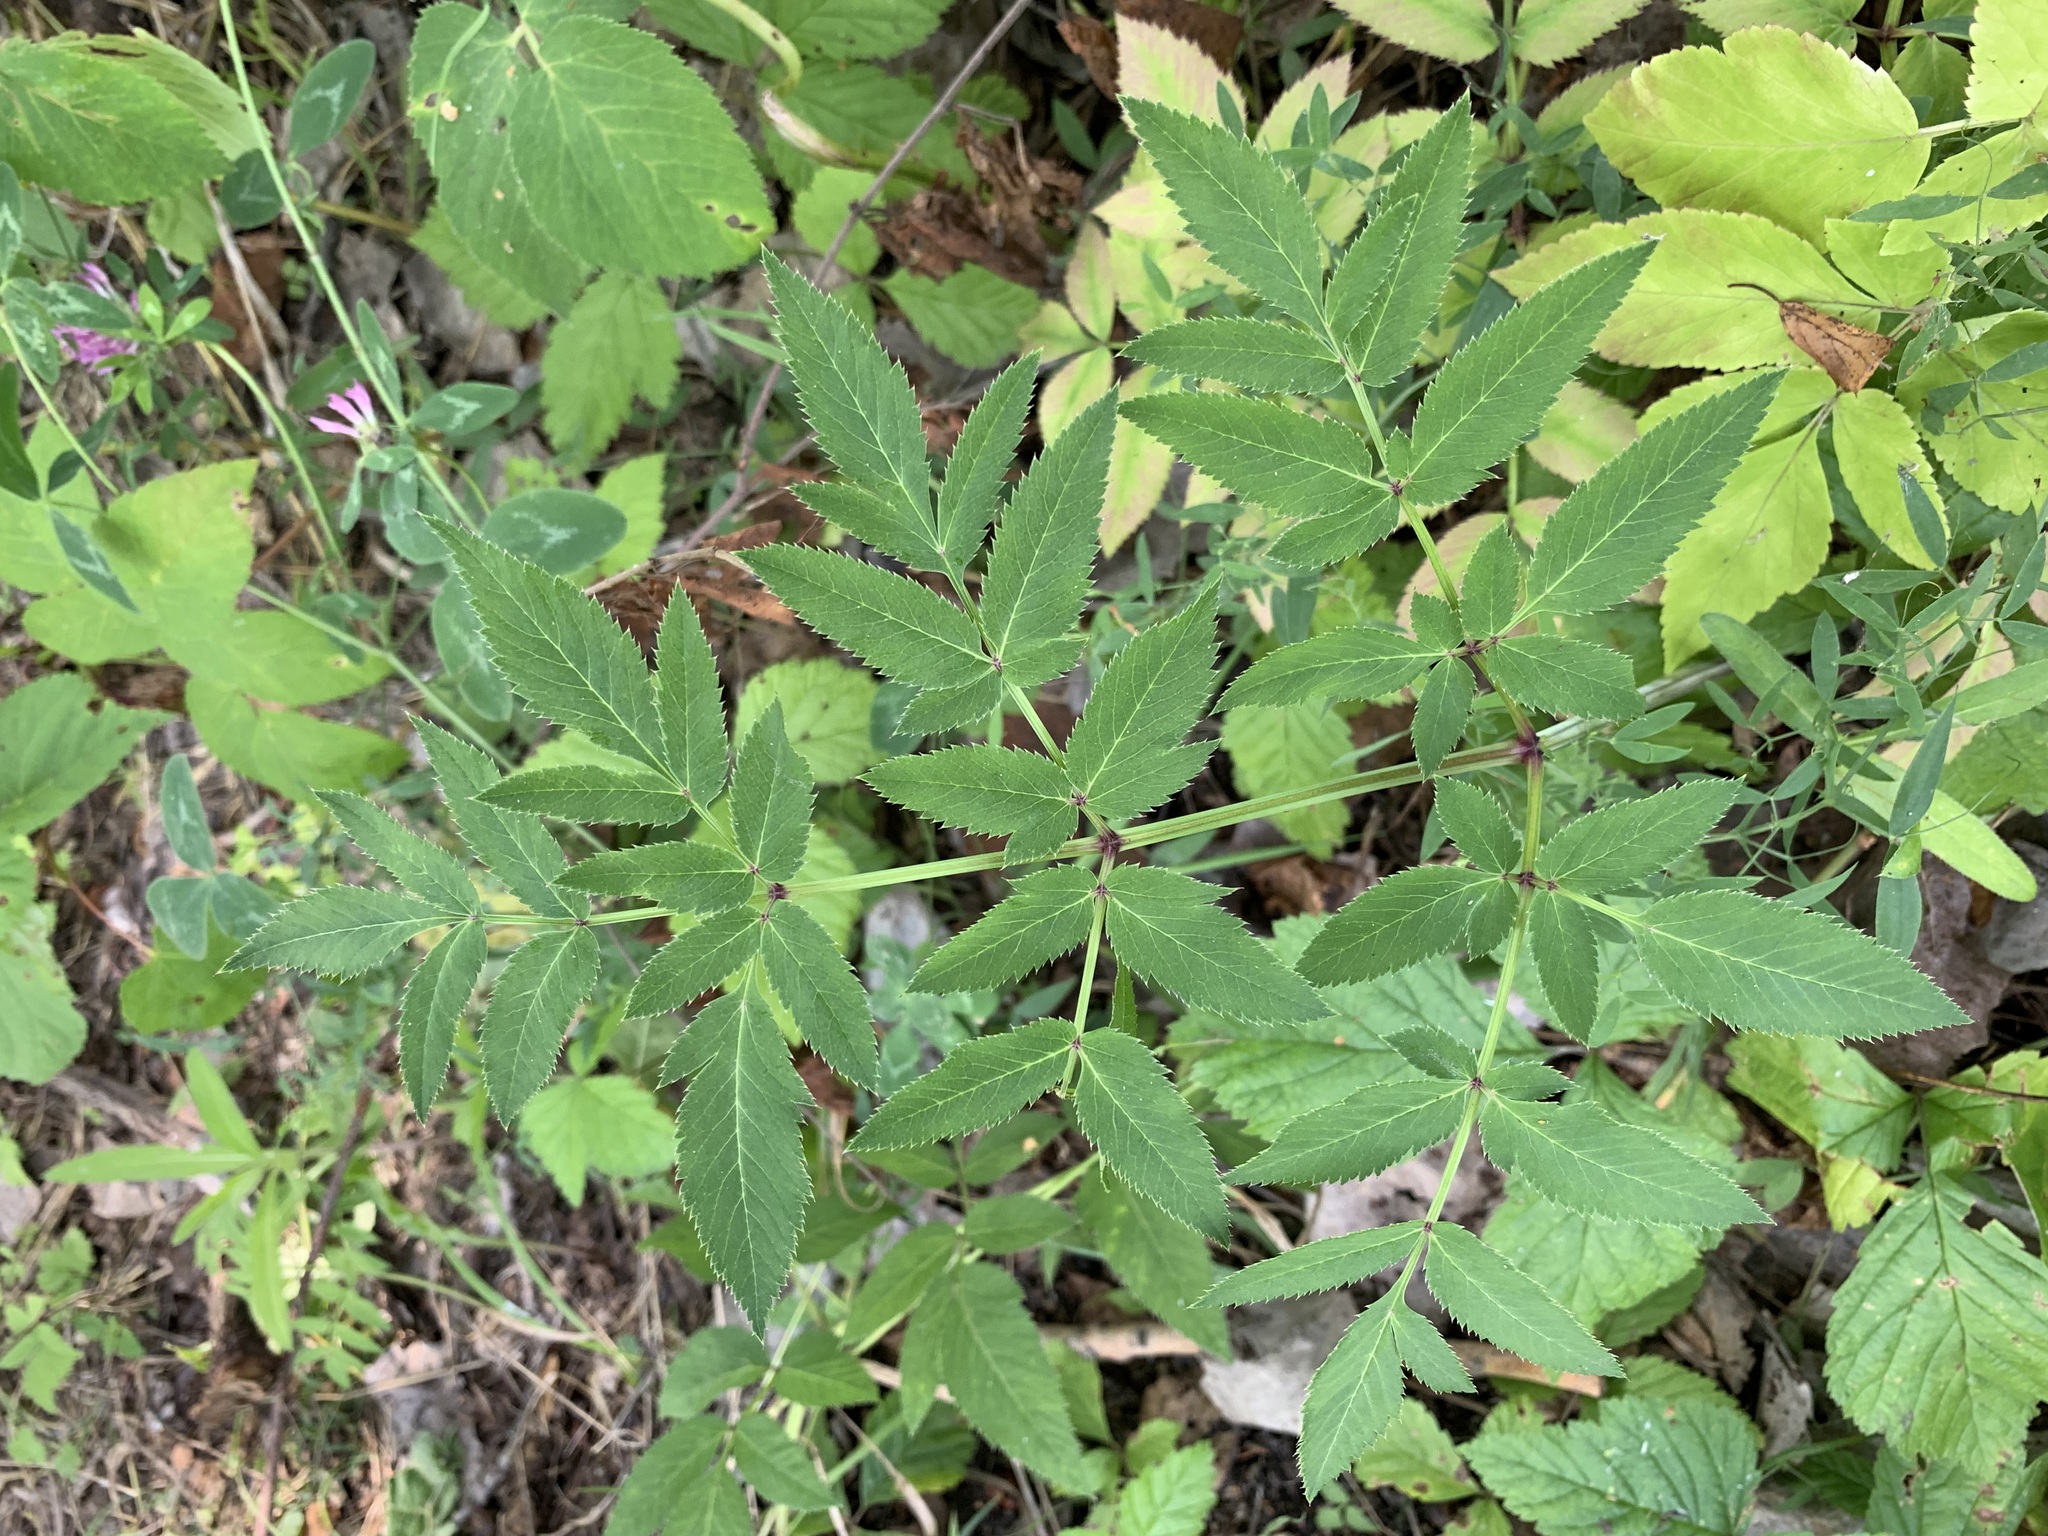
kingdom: Plantae
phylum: Tracheophyta
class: Magnoliopsida
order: Apiales
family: Apiaceae
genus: Angelica
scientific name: Angelica sylvestris
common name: Wild angelica
